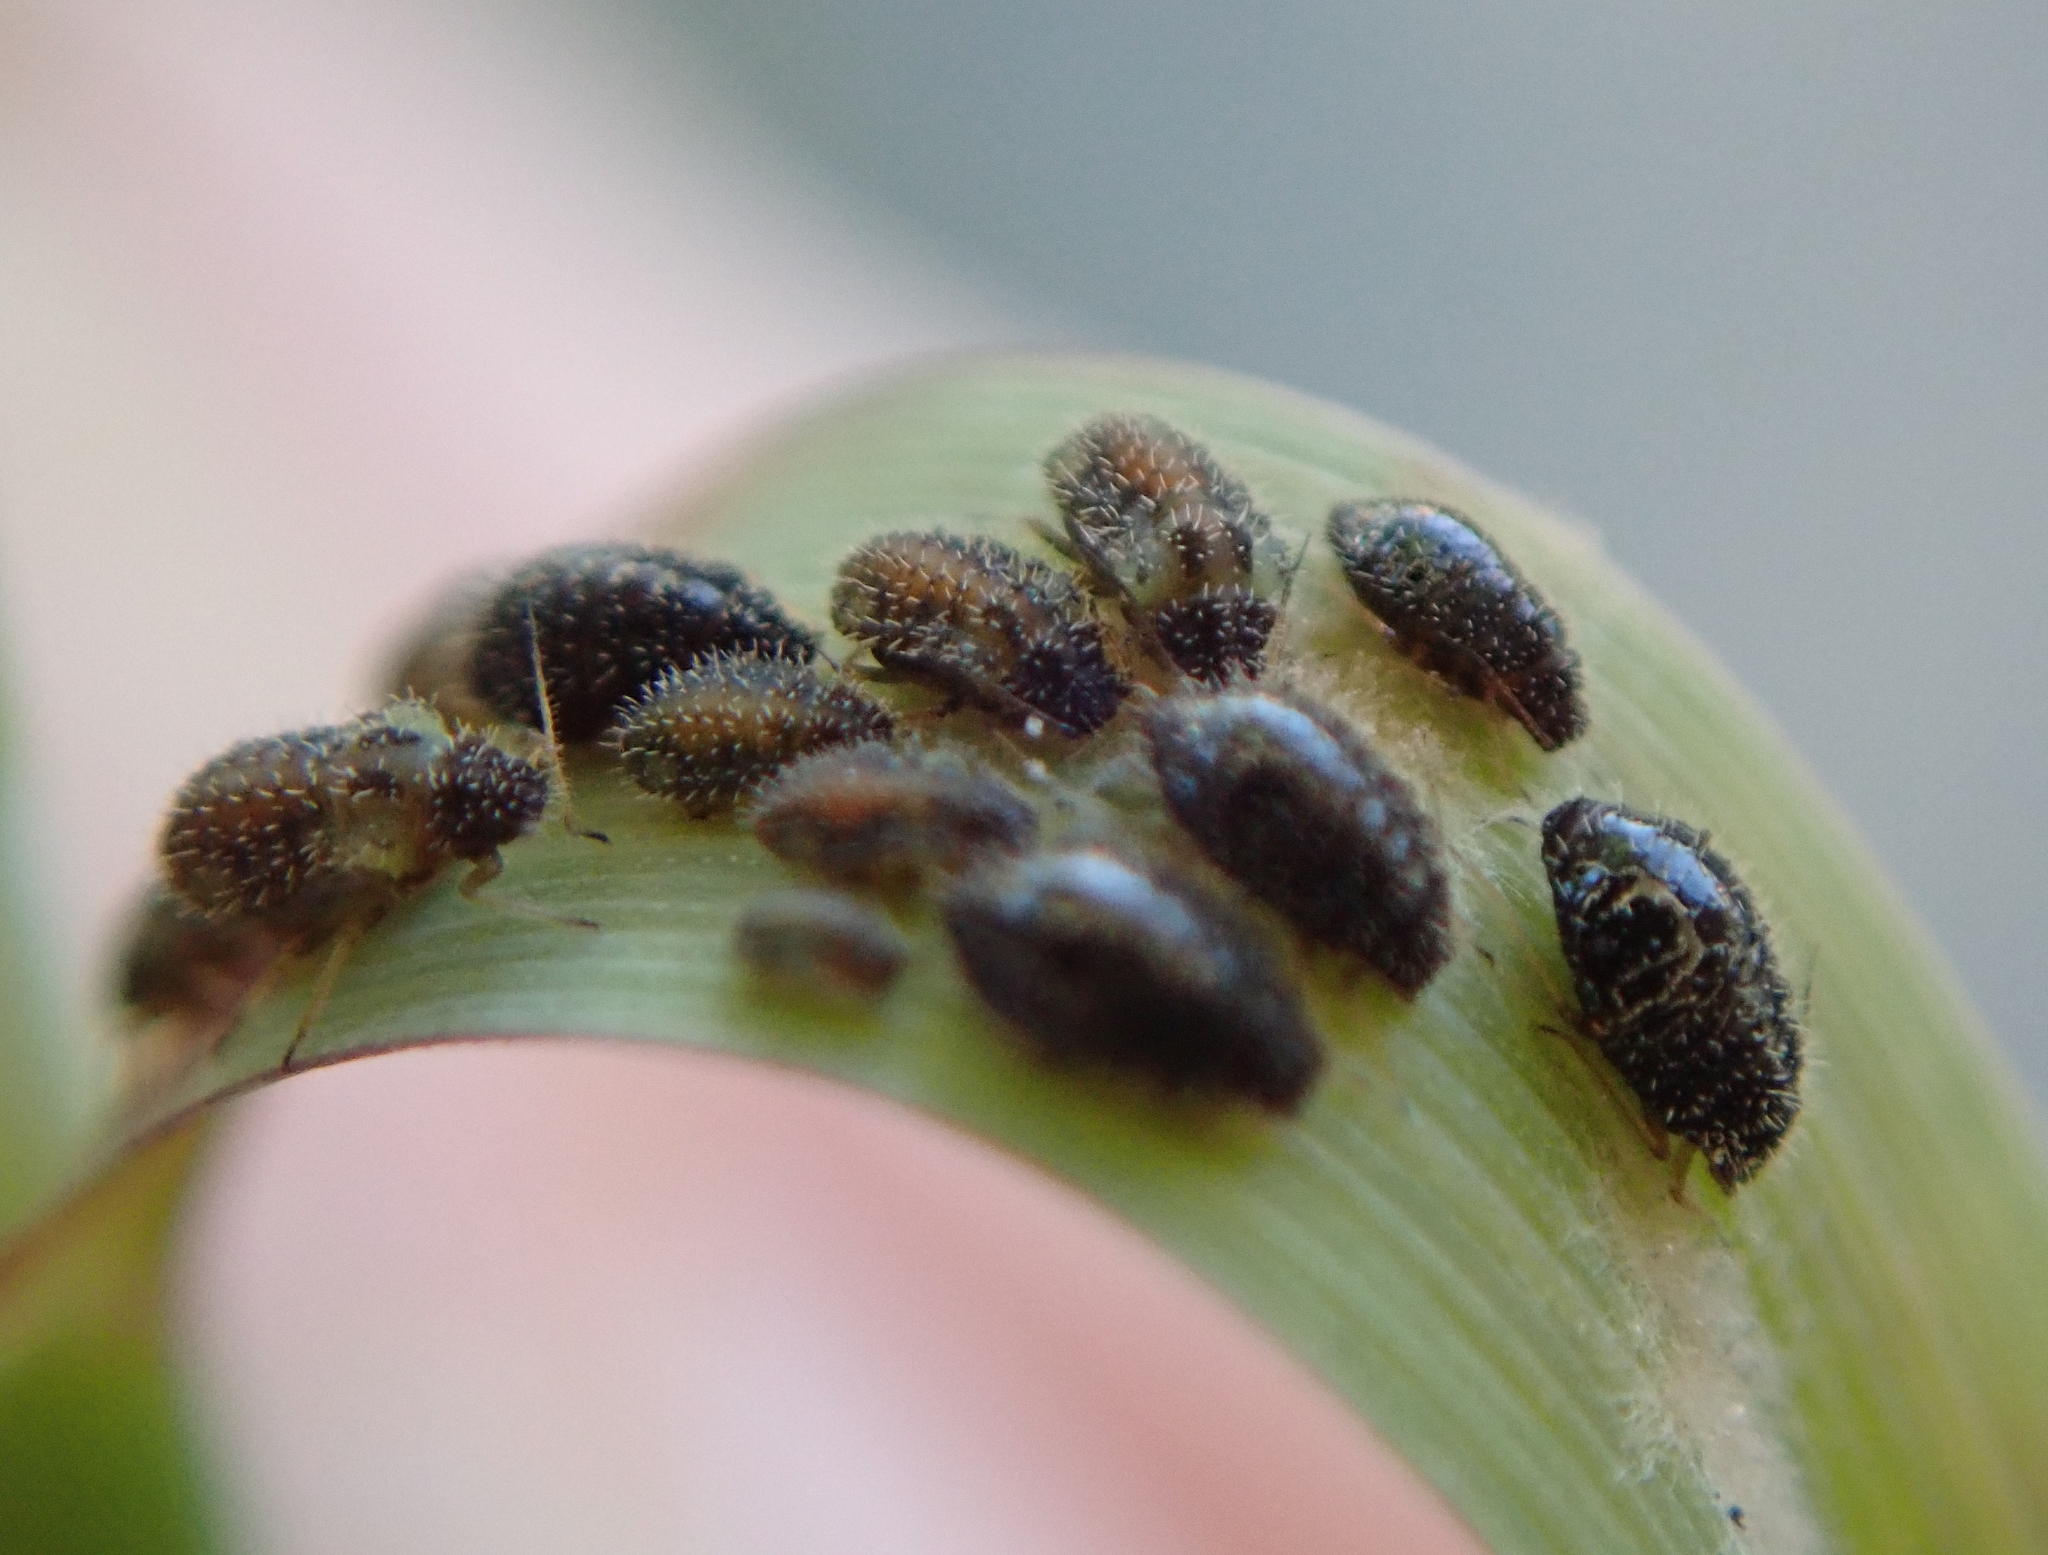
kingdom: Animalia
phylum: Arthropoda
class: Insecta
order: Hemiptera
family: Aphididae
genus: Sipha
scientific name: Sipha maydis
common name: Aphid
